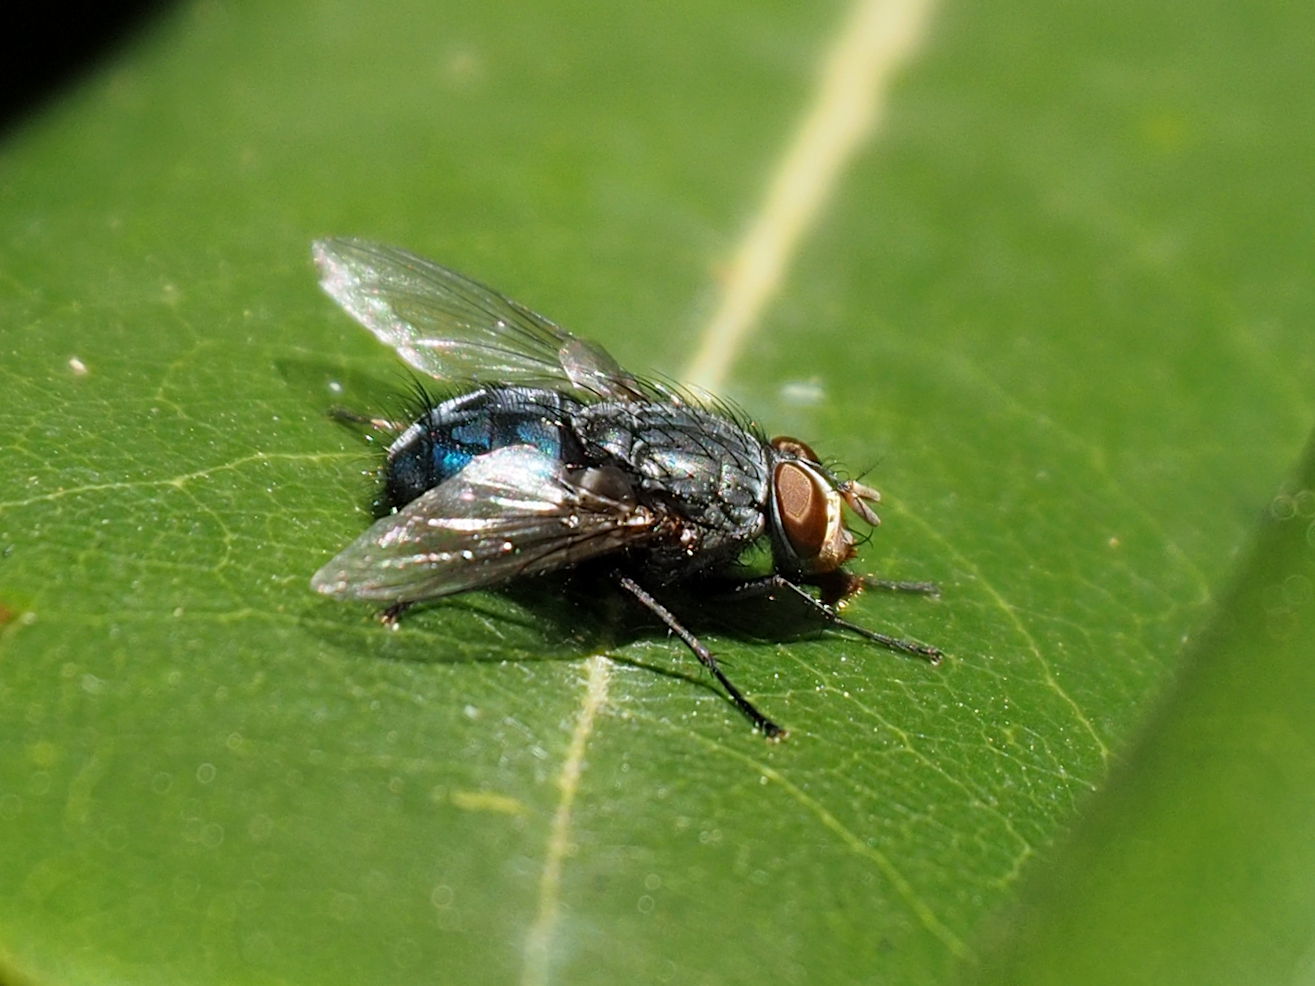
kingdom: Animalia
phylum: Arthropoda
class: Insecta
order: Diptera
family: Calliphoridae
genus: Calliphora
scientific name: Calliphora vicina
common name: Common blow flie
